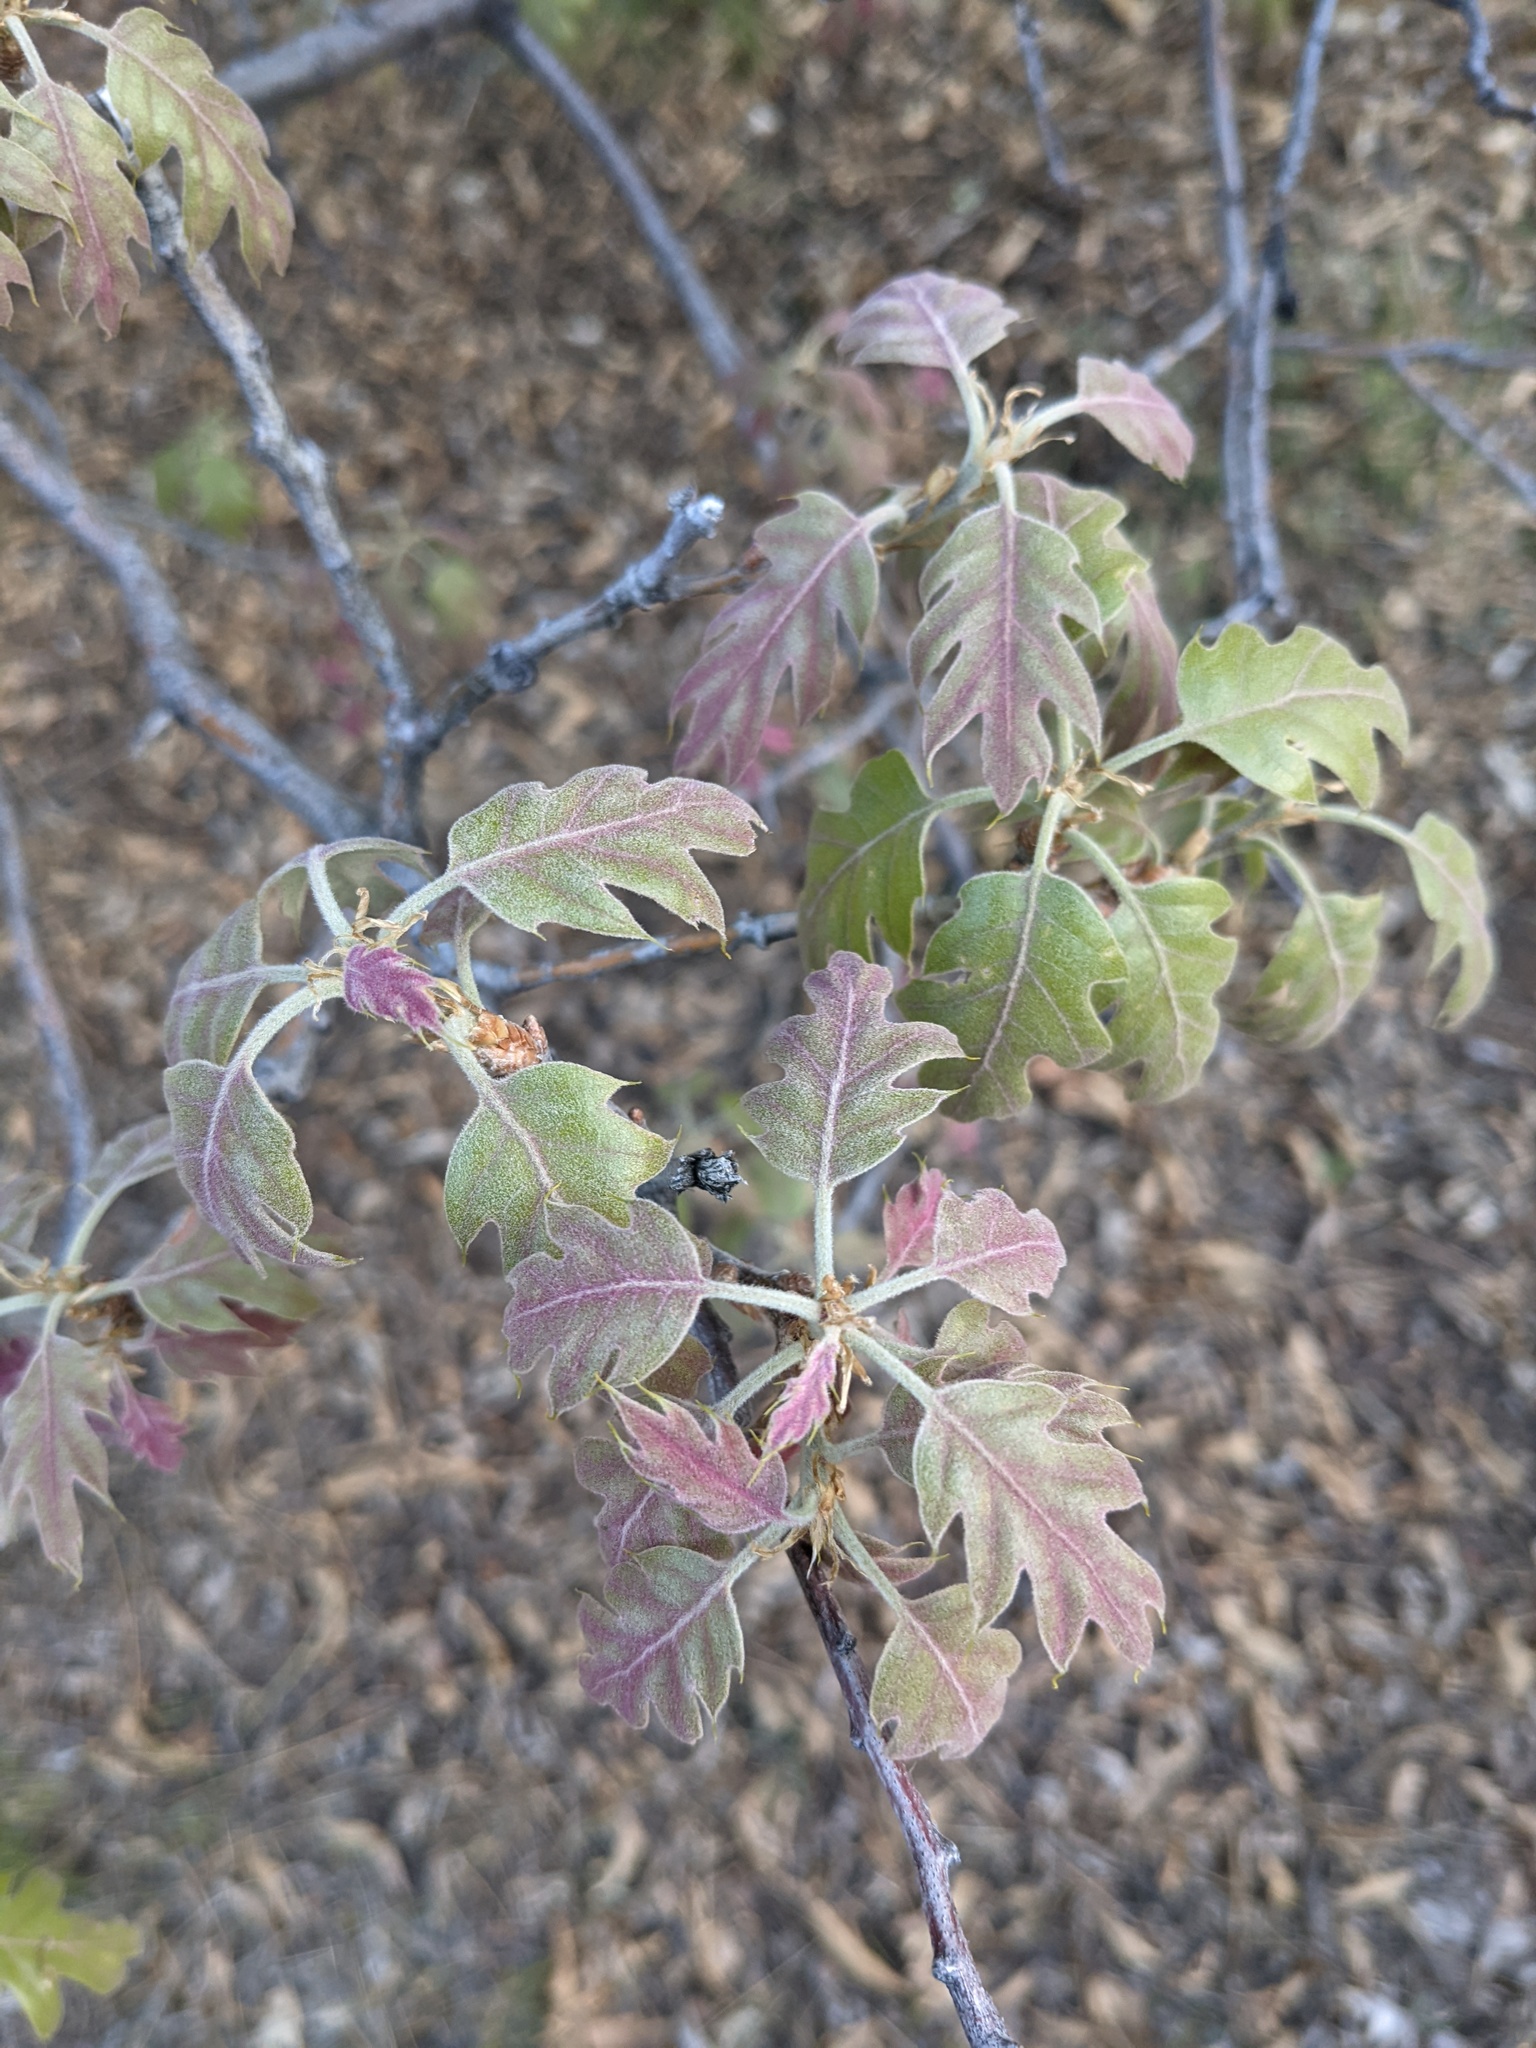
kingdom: Plantae
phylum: Tracheophyta
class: Magnoliopsida
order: Fagales
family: Fagaceae
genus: Quercus
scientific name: Quercus kelloggii
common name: California black oak
